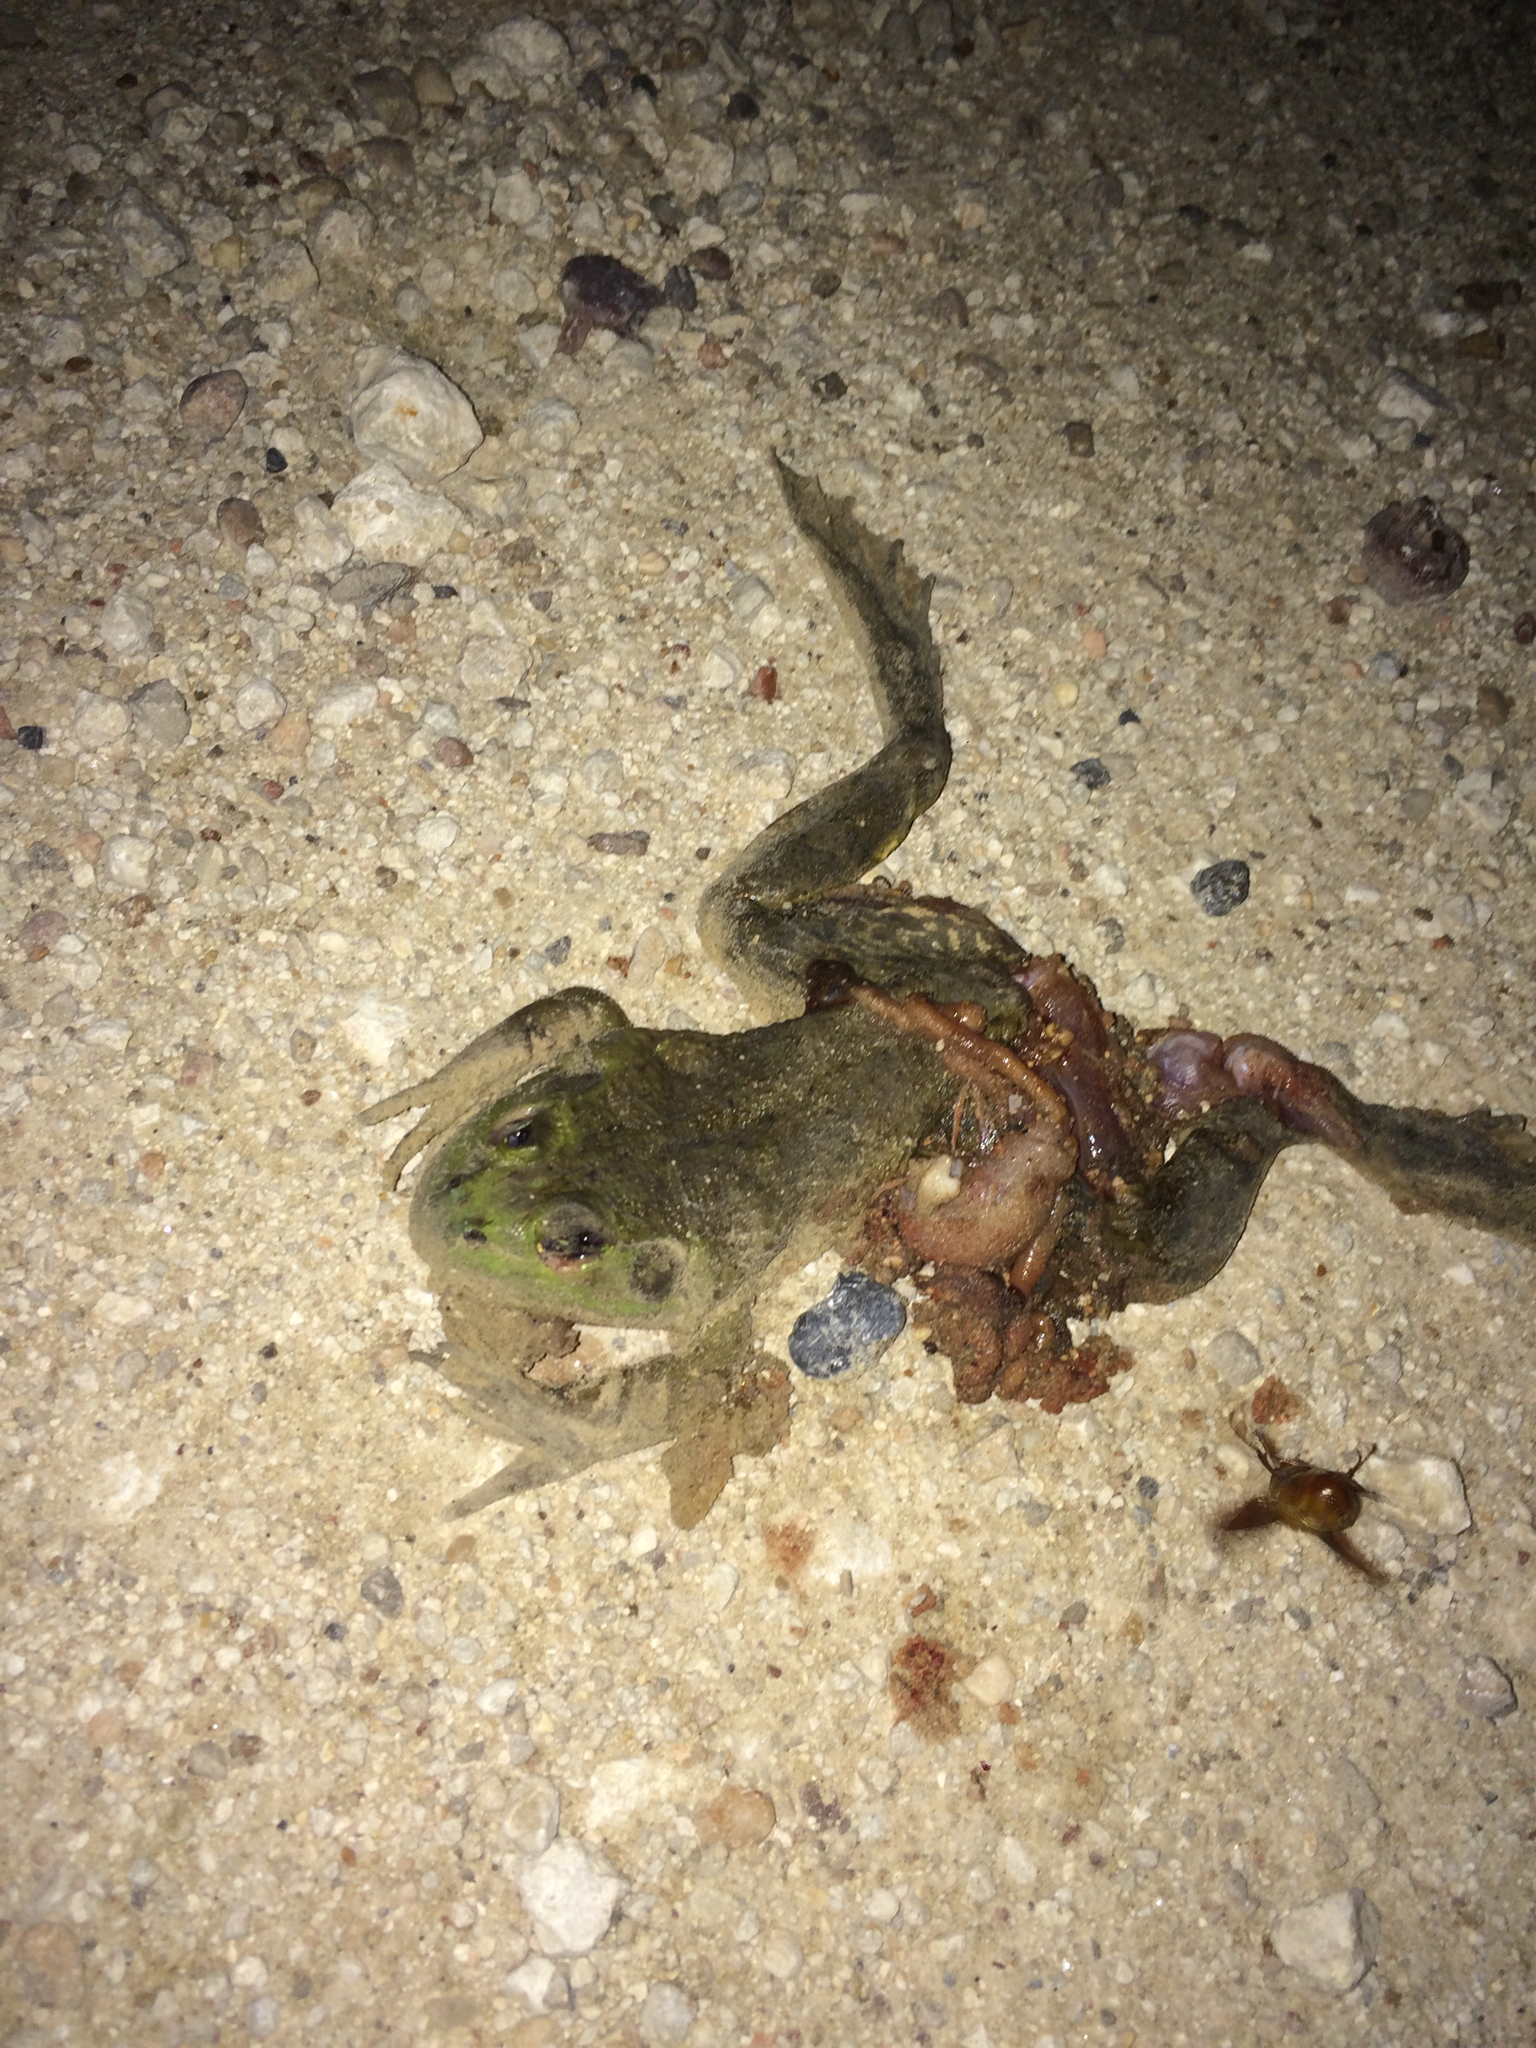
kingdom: Animalia
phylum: Chordata
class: Amphibia
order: Anura
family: Ranidae
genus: Lithobates
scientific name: Lithobates catesbeianus
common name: American bullfrog
